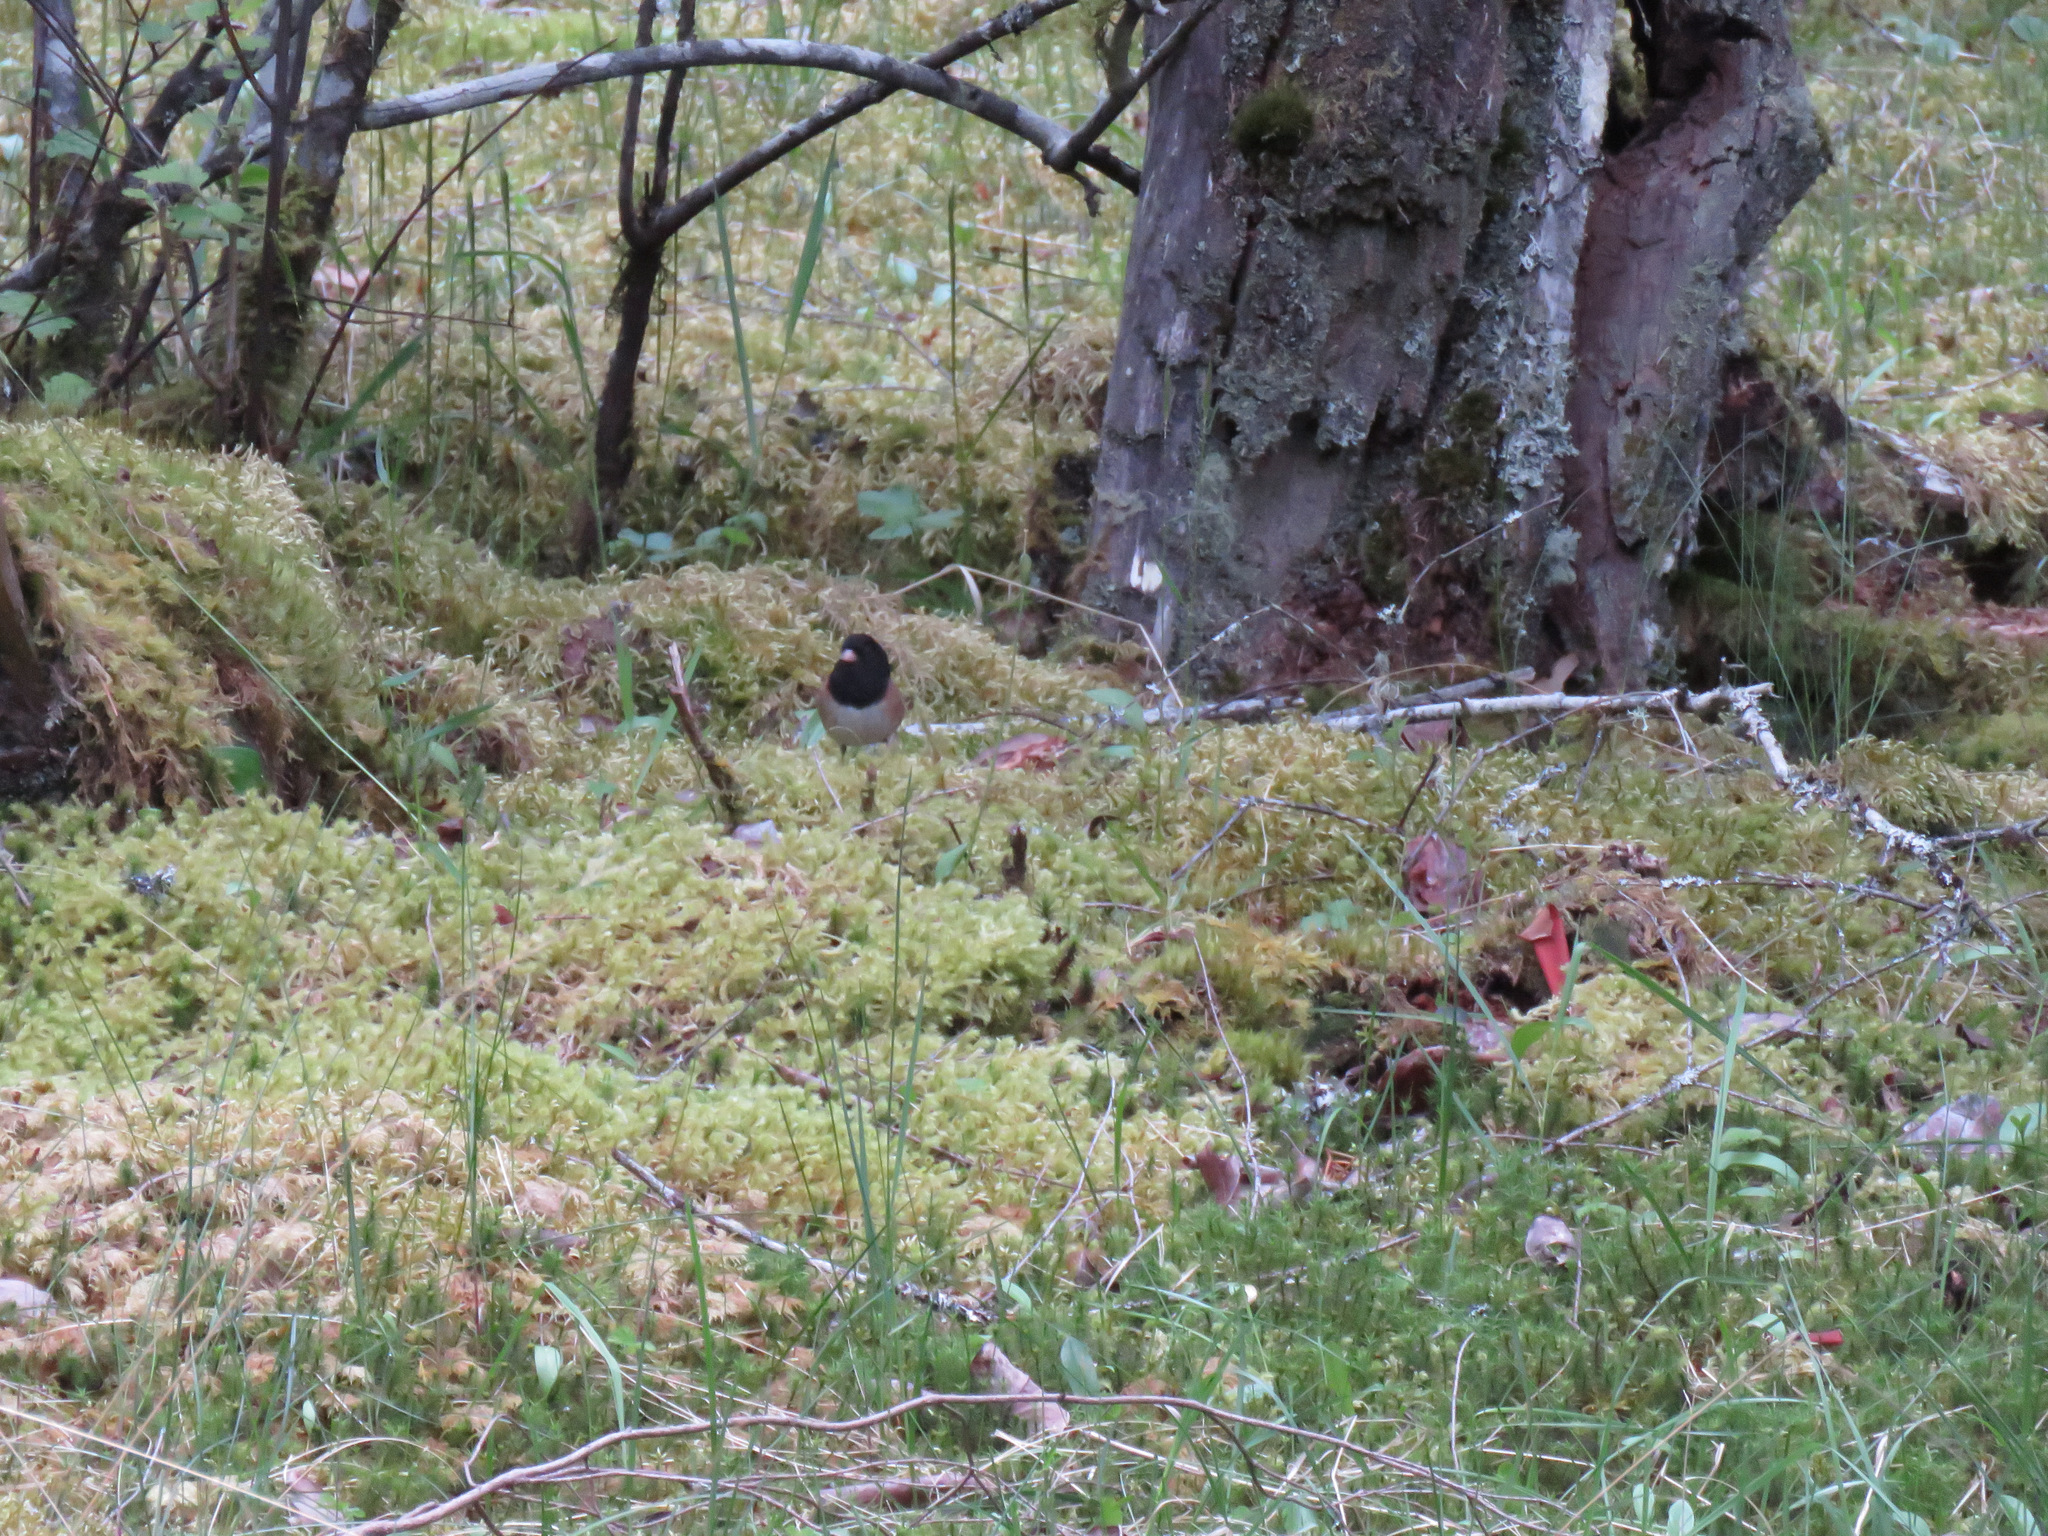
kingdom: Animalia
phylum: Chordata
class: Aves
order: Passeriformes
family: Passerellidae
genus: Junco
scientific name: Junco hyemalis
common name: Dark-eyed junco
